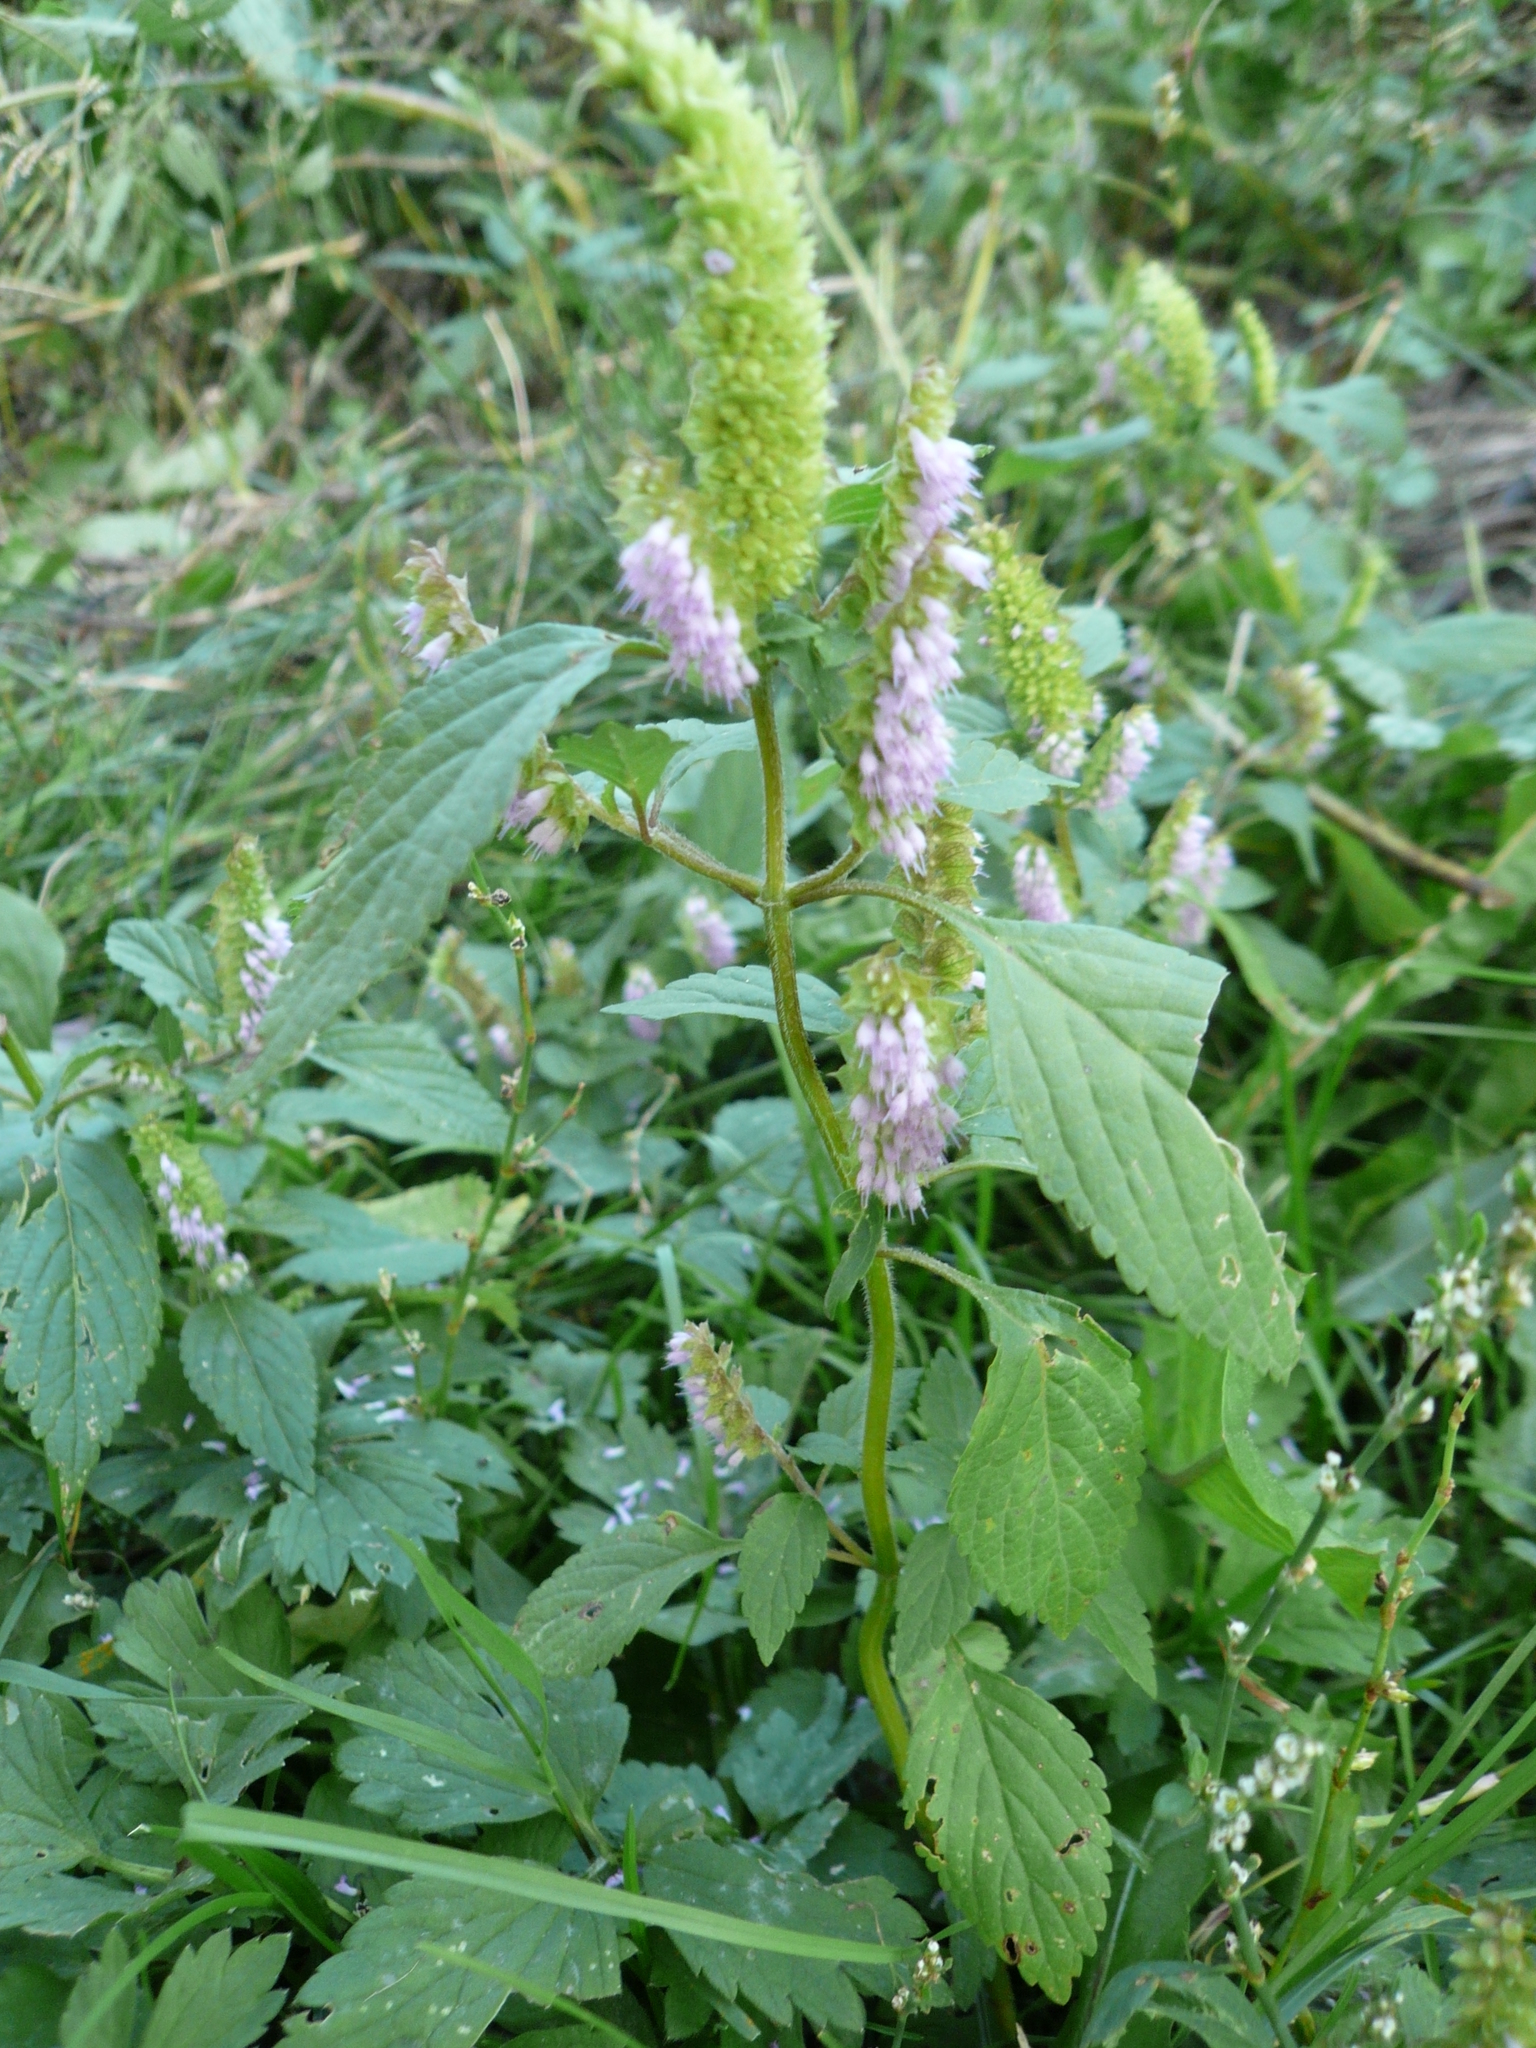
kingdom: Plantae
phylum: Tracheophyta
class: Magnoliopsida
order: Lamiales
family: Lamiaceae
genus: Elsholtzia
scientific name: Elsholtzia ciliata
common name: Ciliate elsholtzia
